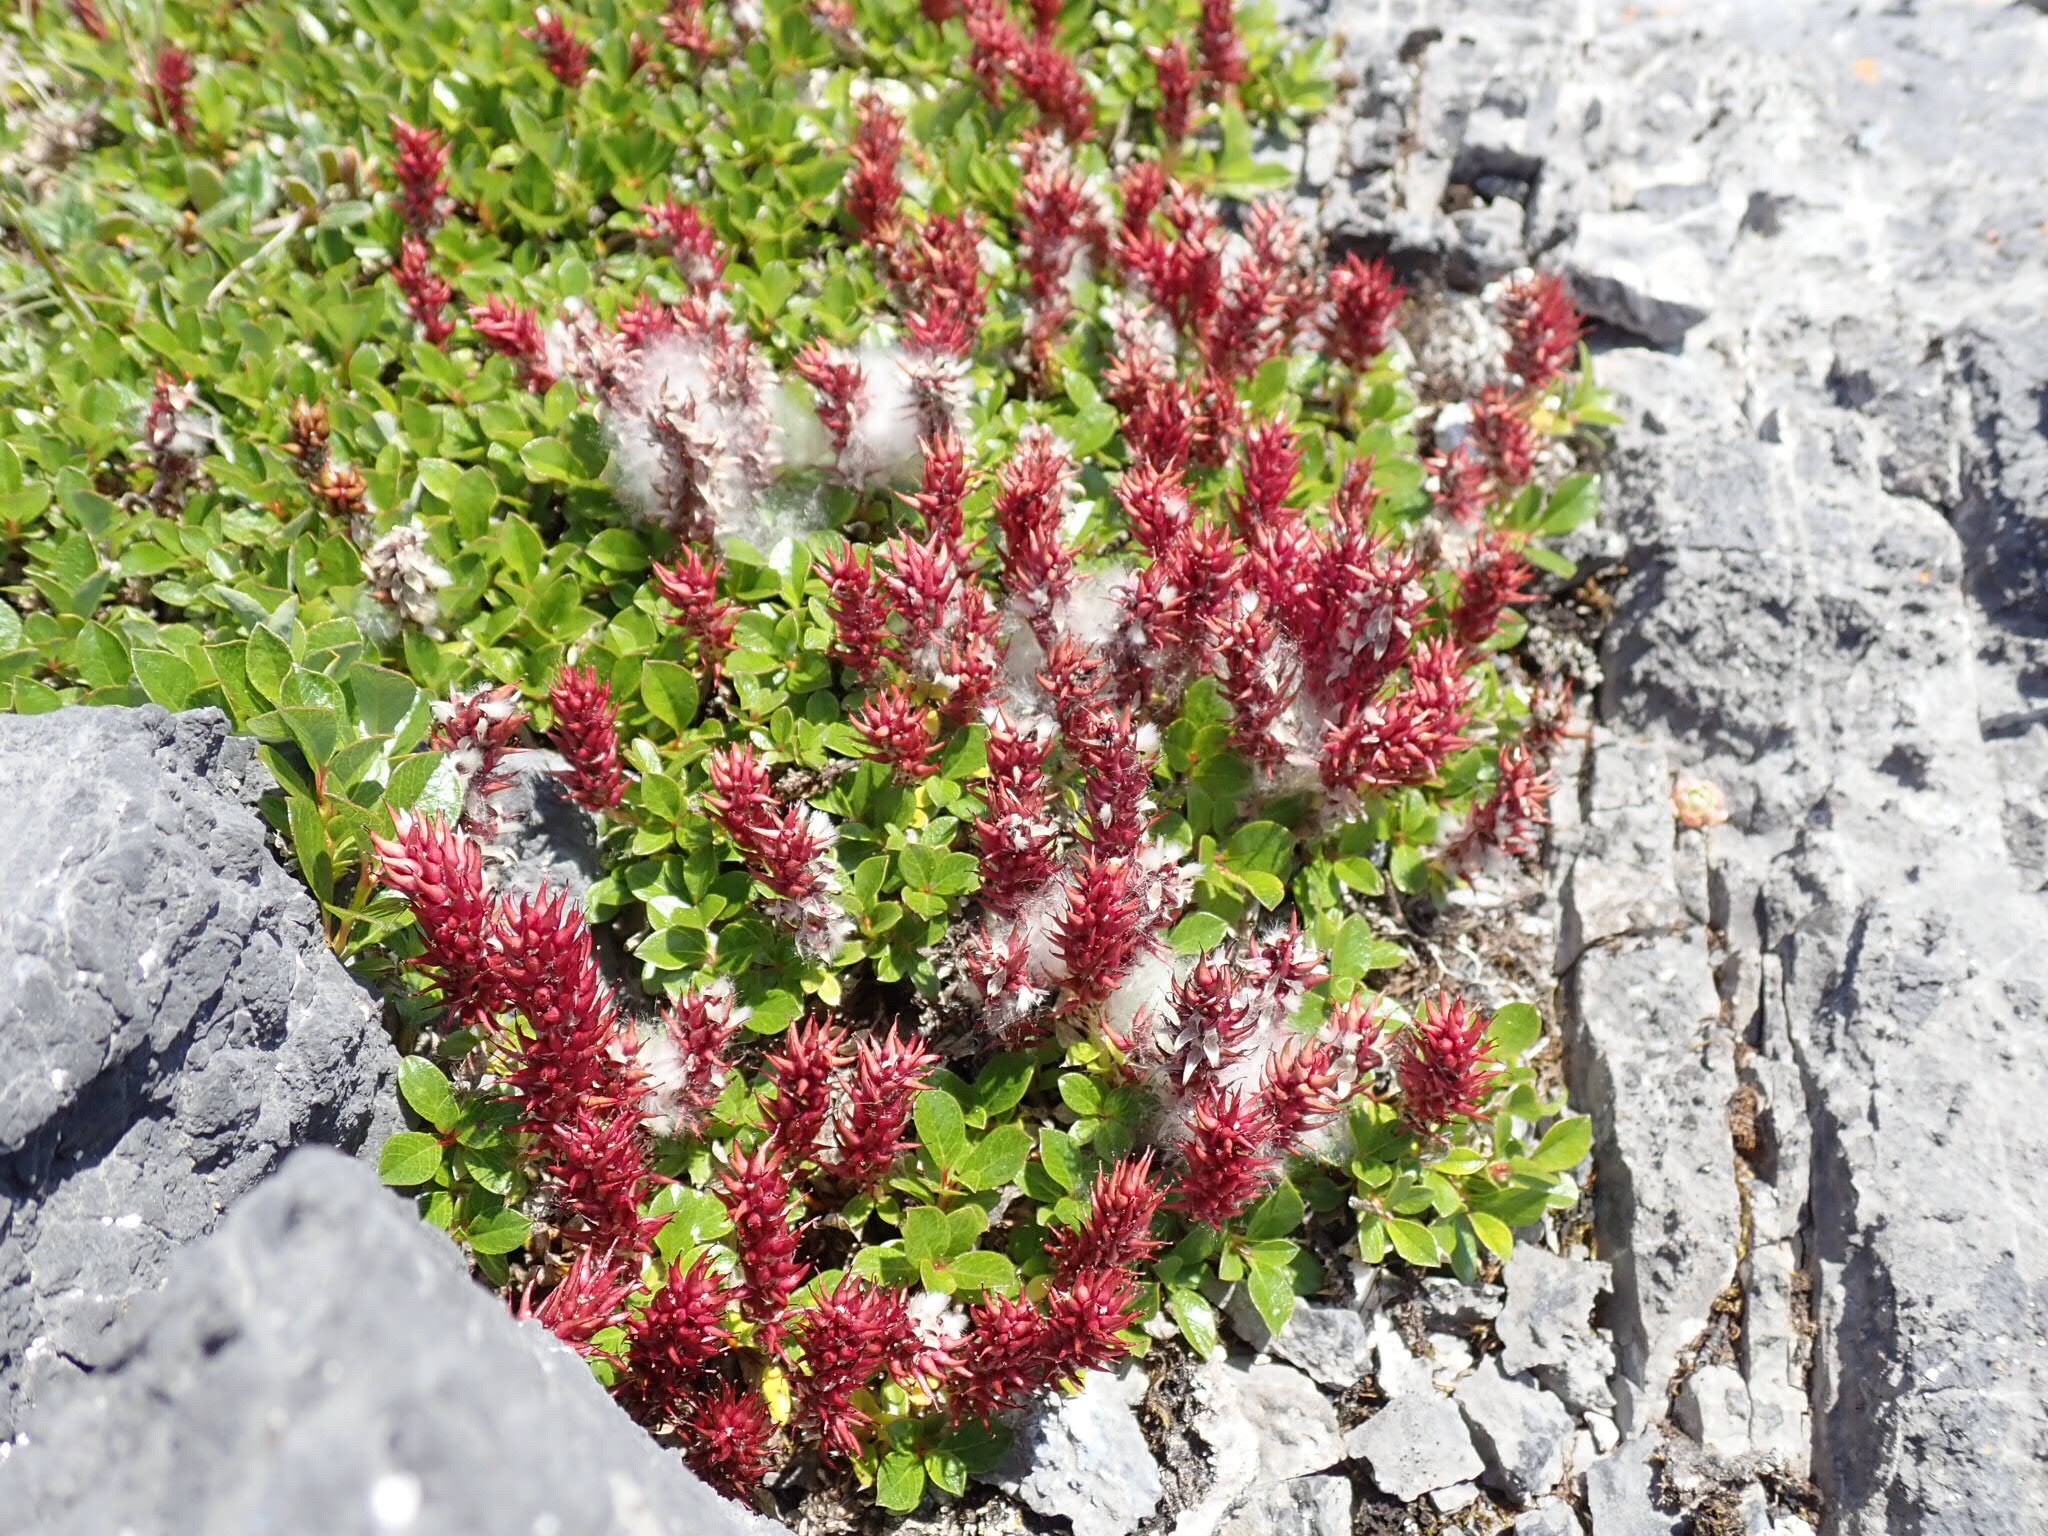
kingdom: Plantae
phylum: Tracheophyta
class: Magnoliopsida
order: Malpighiales
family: Salicaceae
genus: Salix
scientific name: Salix uva-ursi
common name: Bearberry willow
